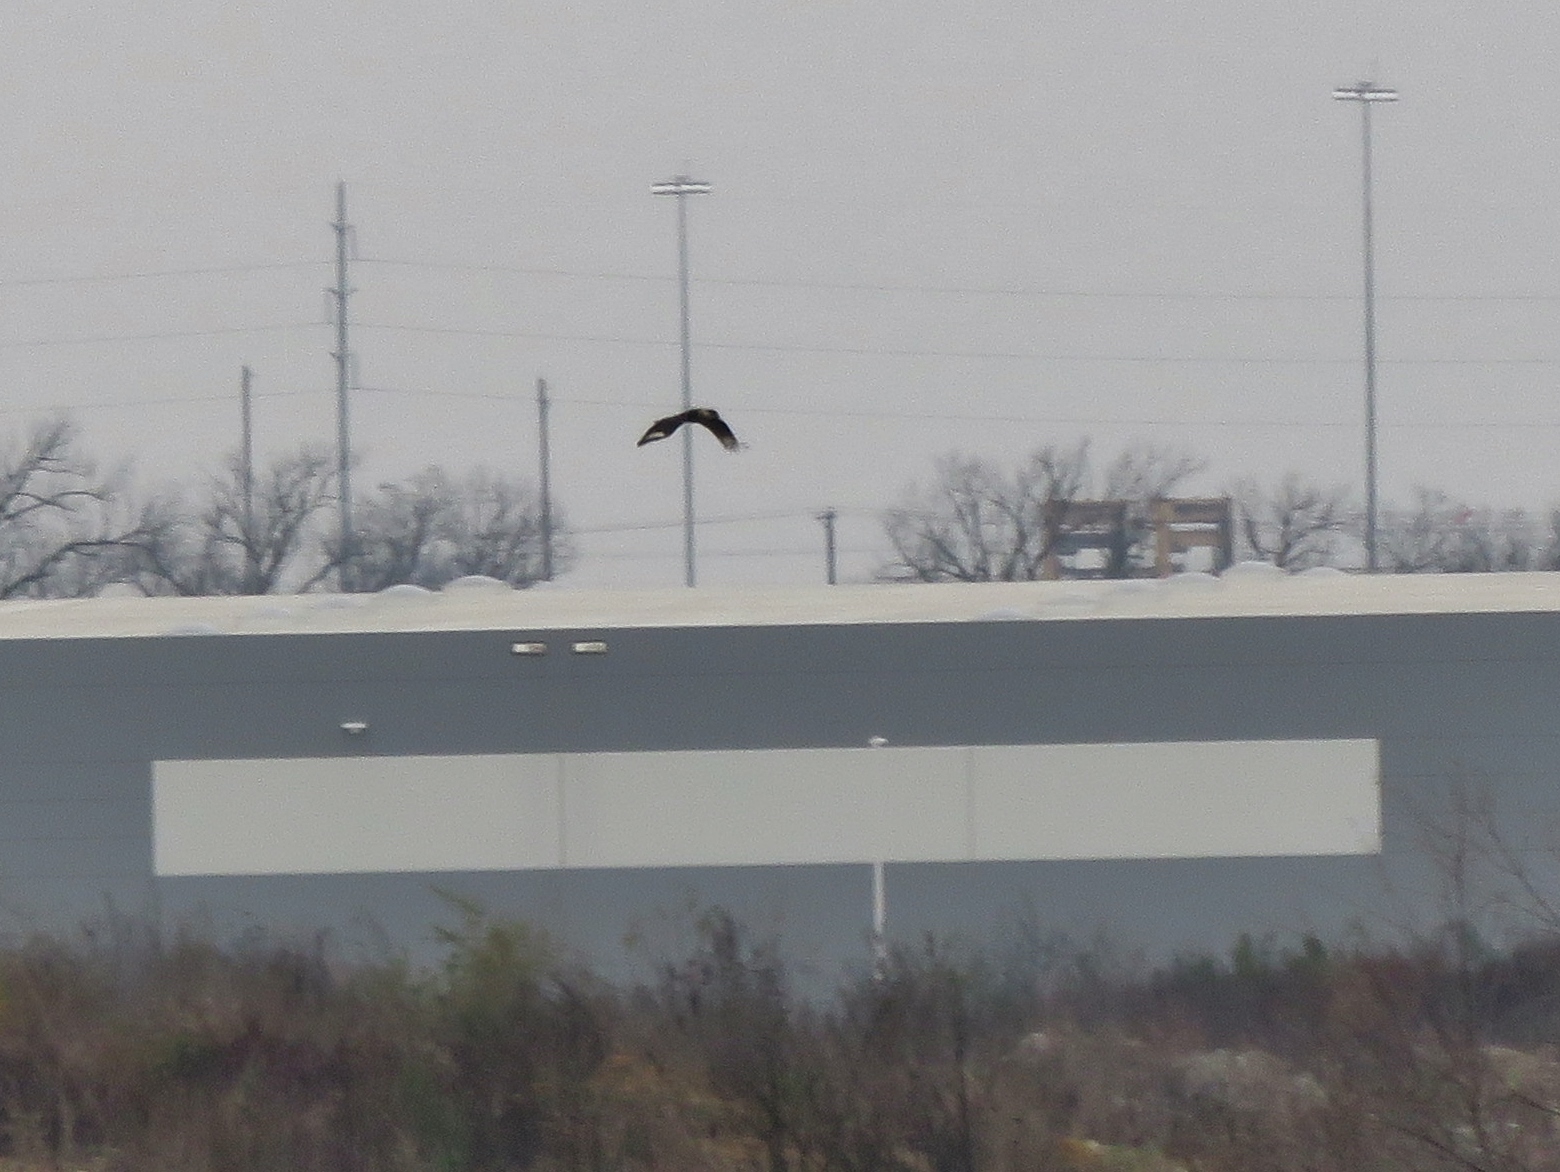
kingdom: Animalia
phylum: Chordata
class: Aves
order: Falconiformes
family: Falconidae
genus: Caracara
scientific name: Caracara plancus
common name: Southern caracara
